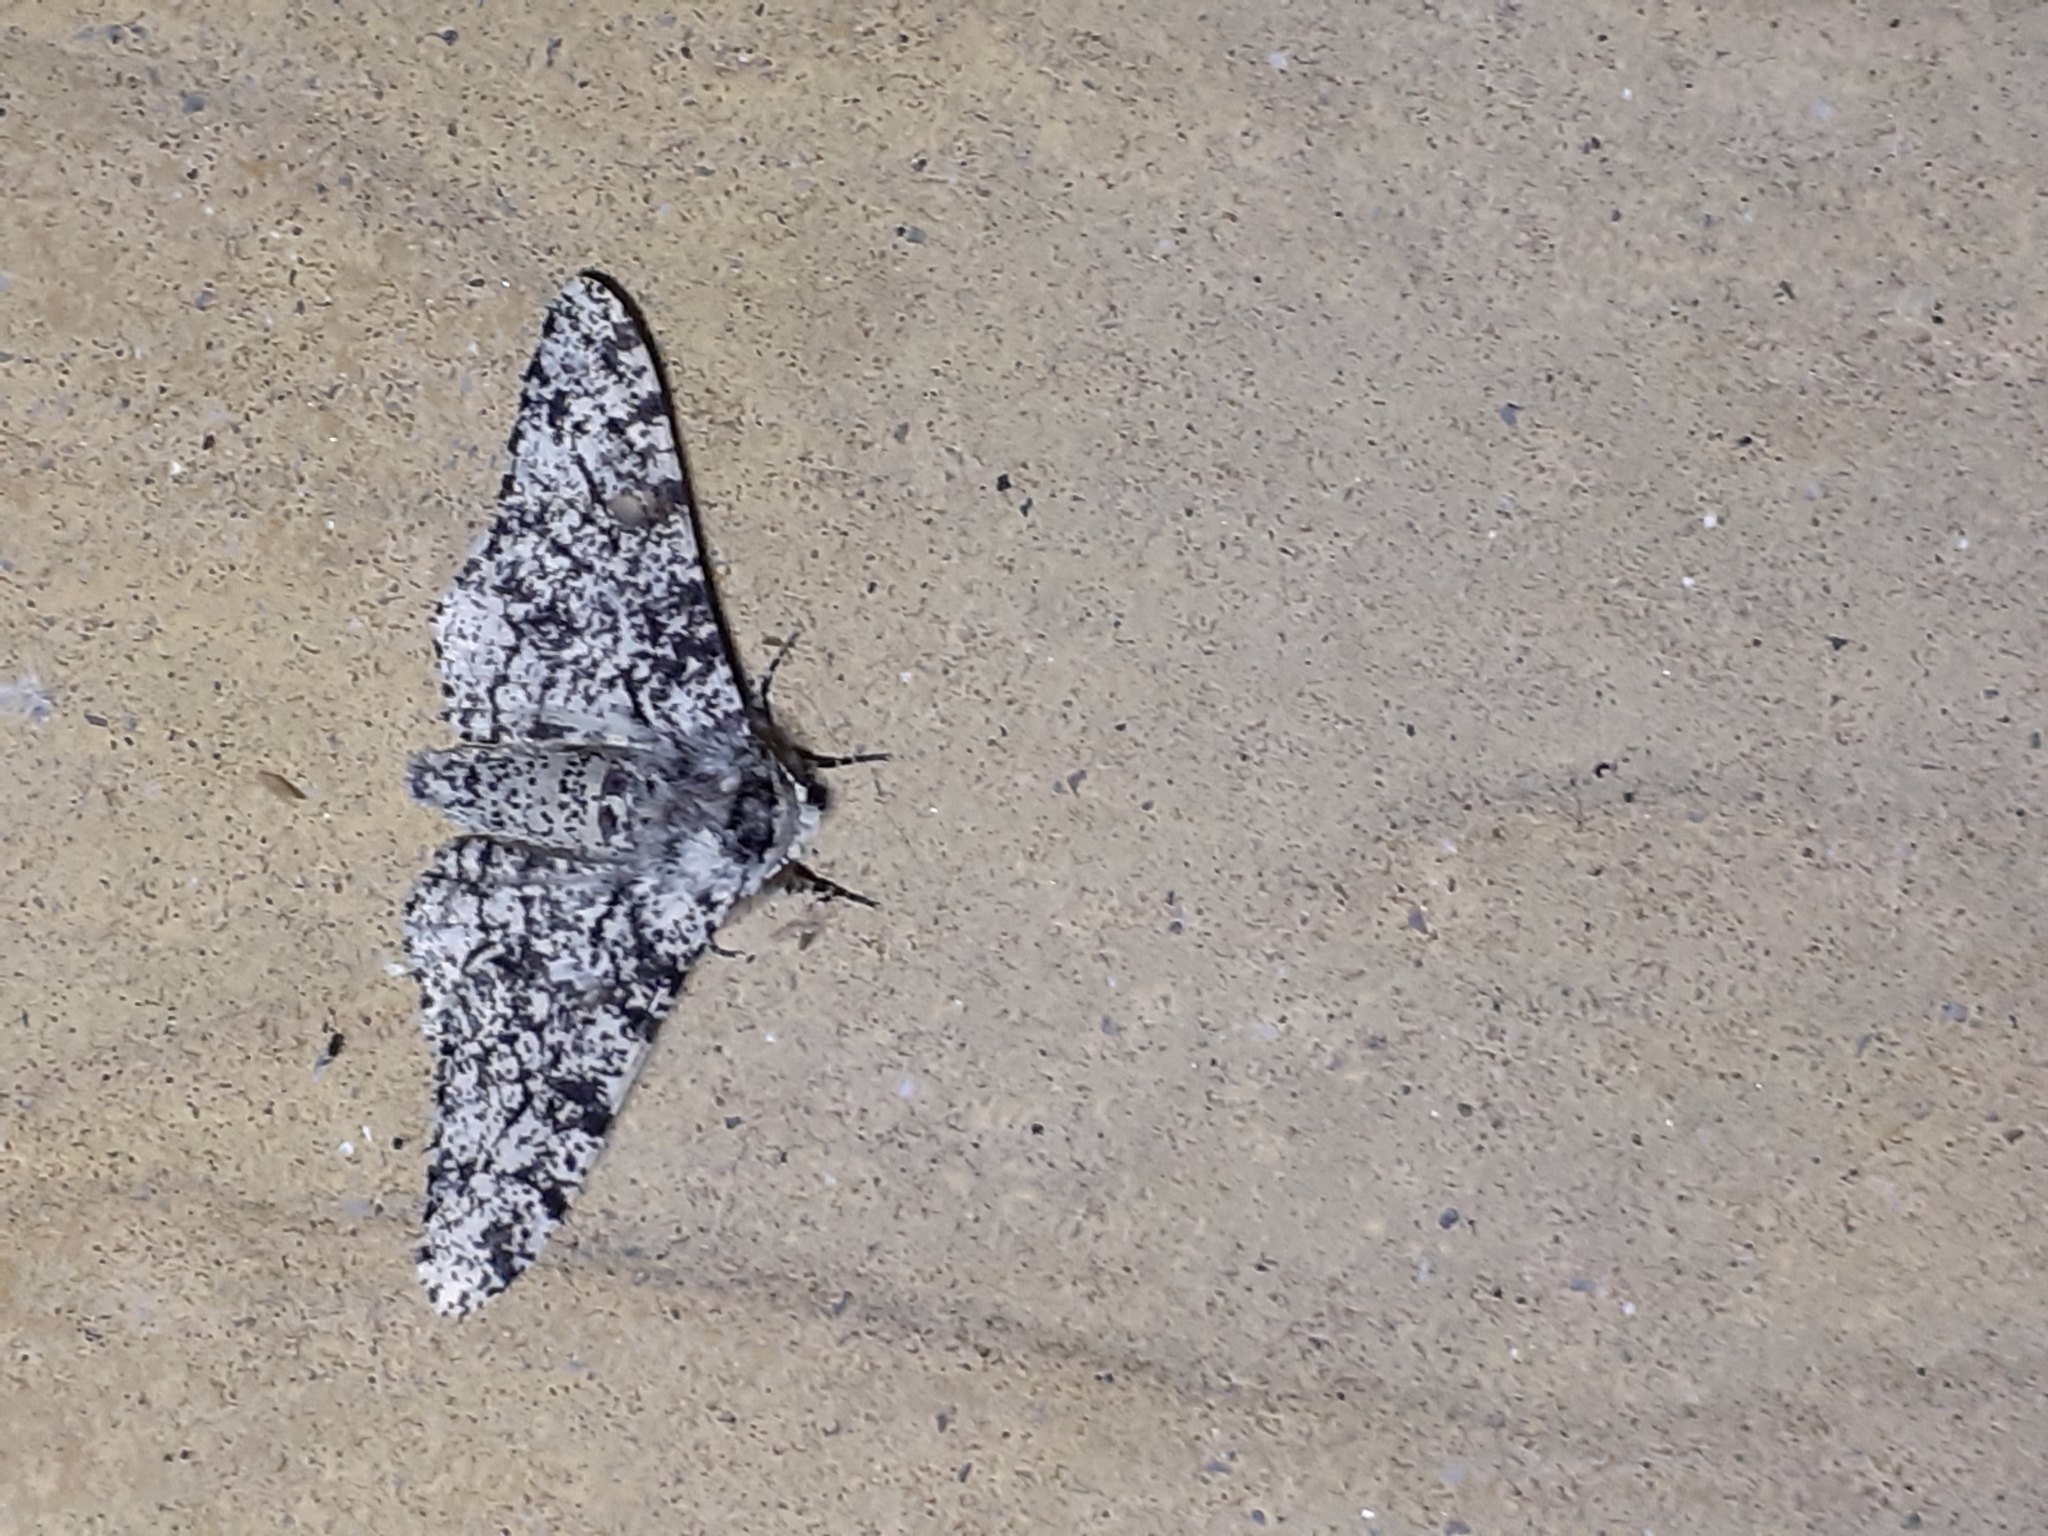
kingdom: Animalia
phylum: Arthropoda
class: Insecta
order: Lepidoptera
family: Geometridae
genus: Biston
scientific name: Biston betularia
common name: Peppered moth
